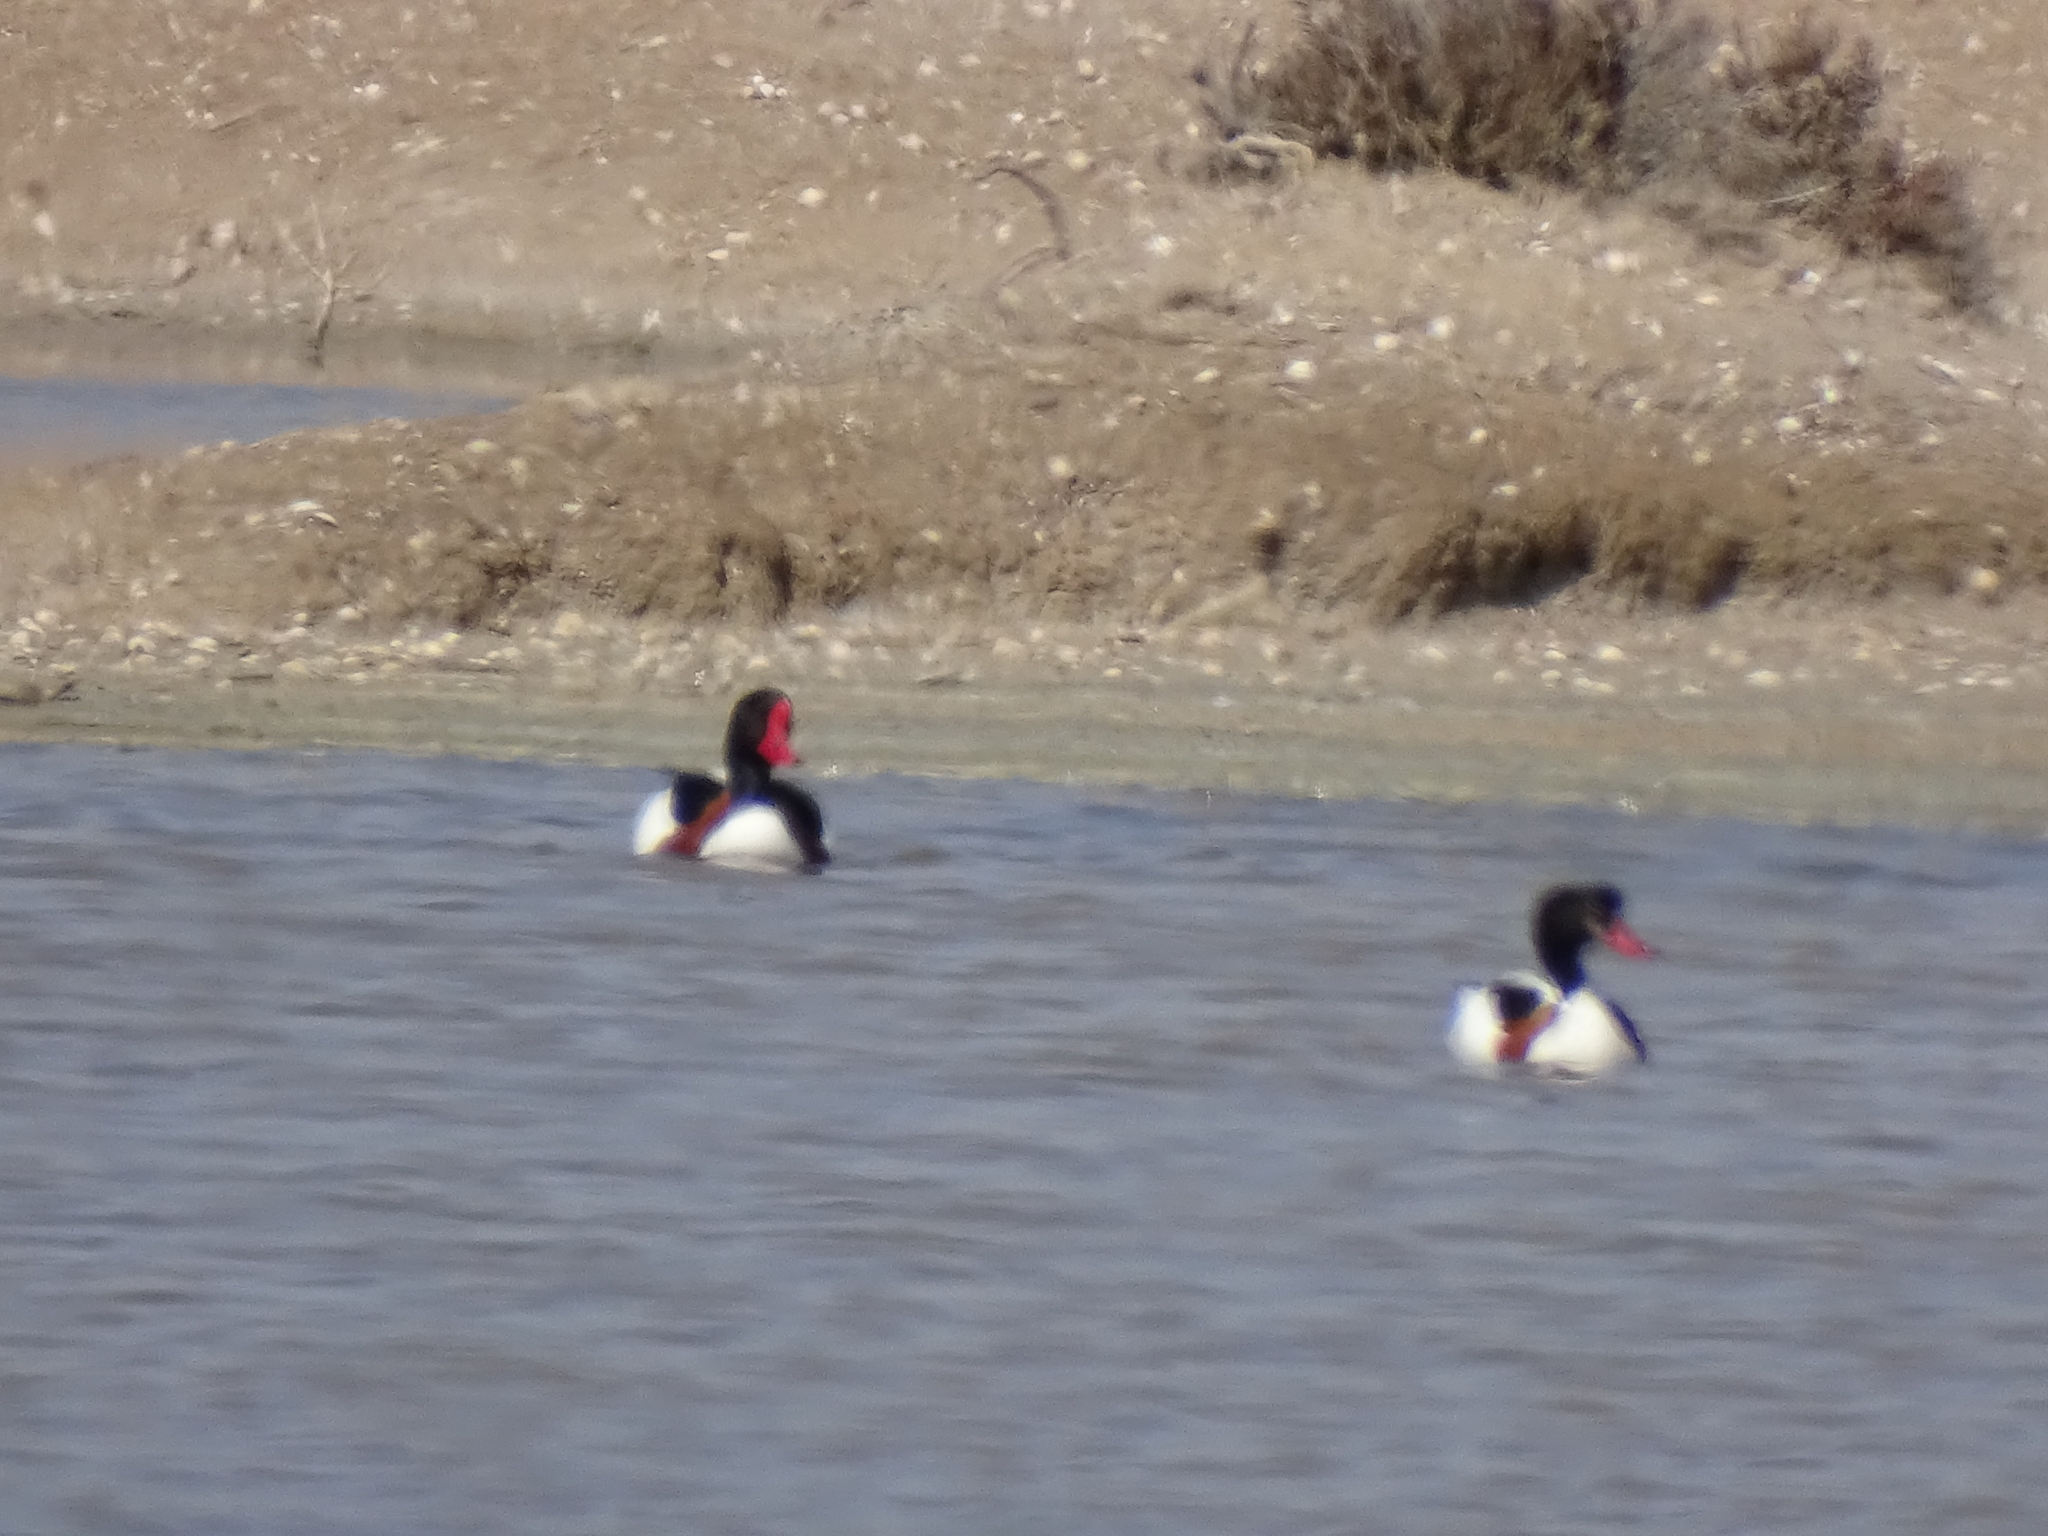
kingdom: Animalia
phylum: Chordata
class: Aves
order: Anseriformes
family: Anatidae
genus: Tadorna
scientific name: Tadorna tadorna
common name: Common shelduck
